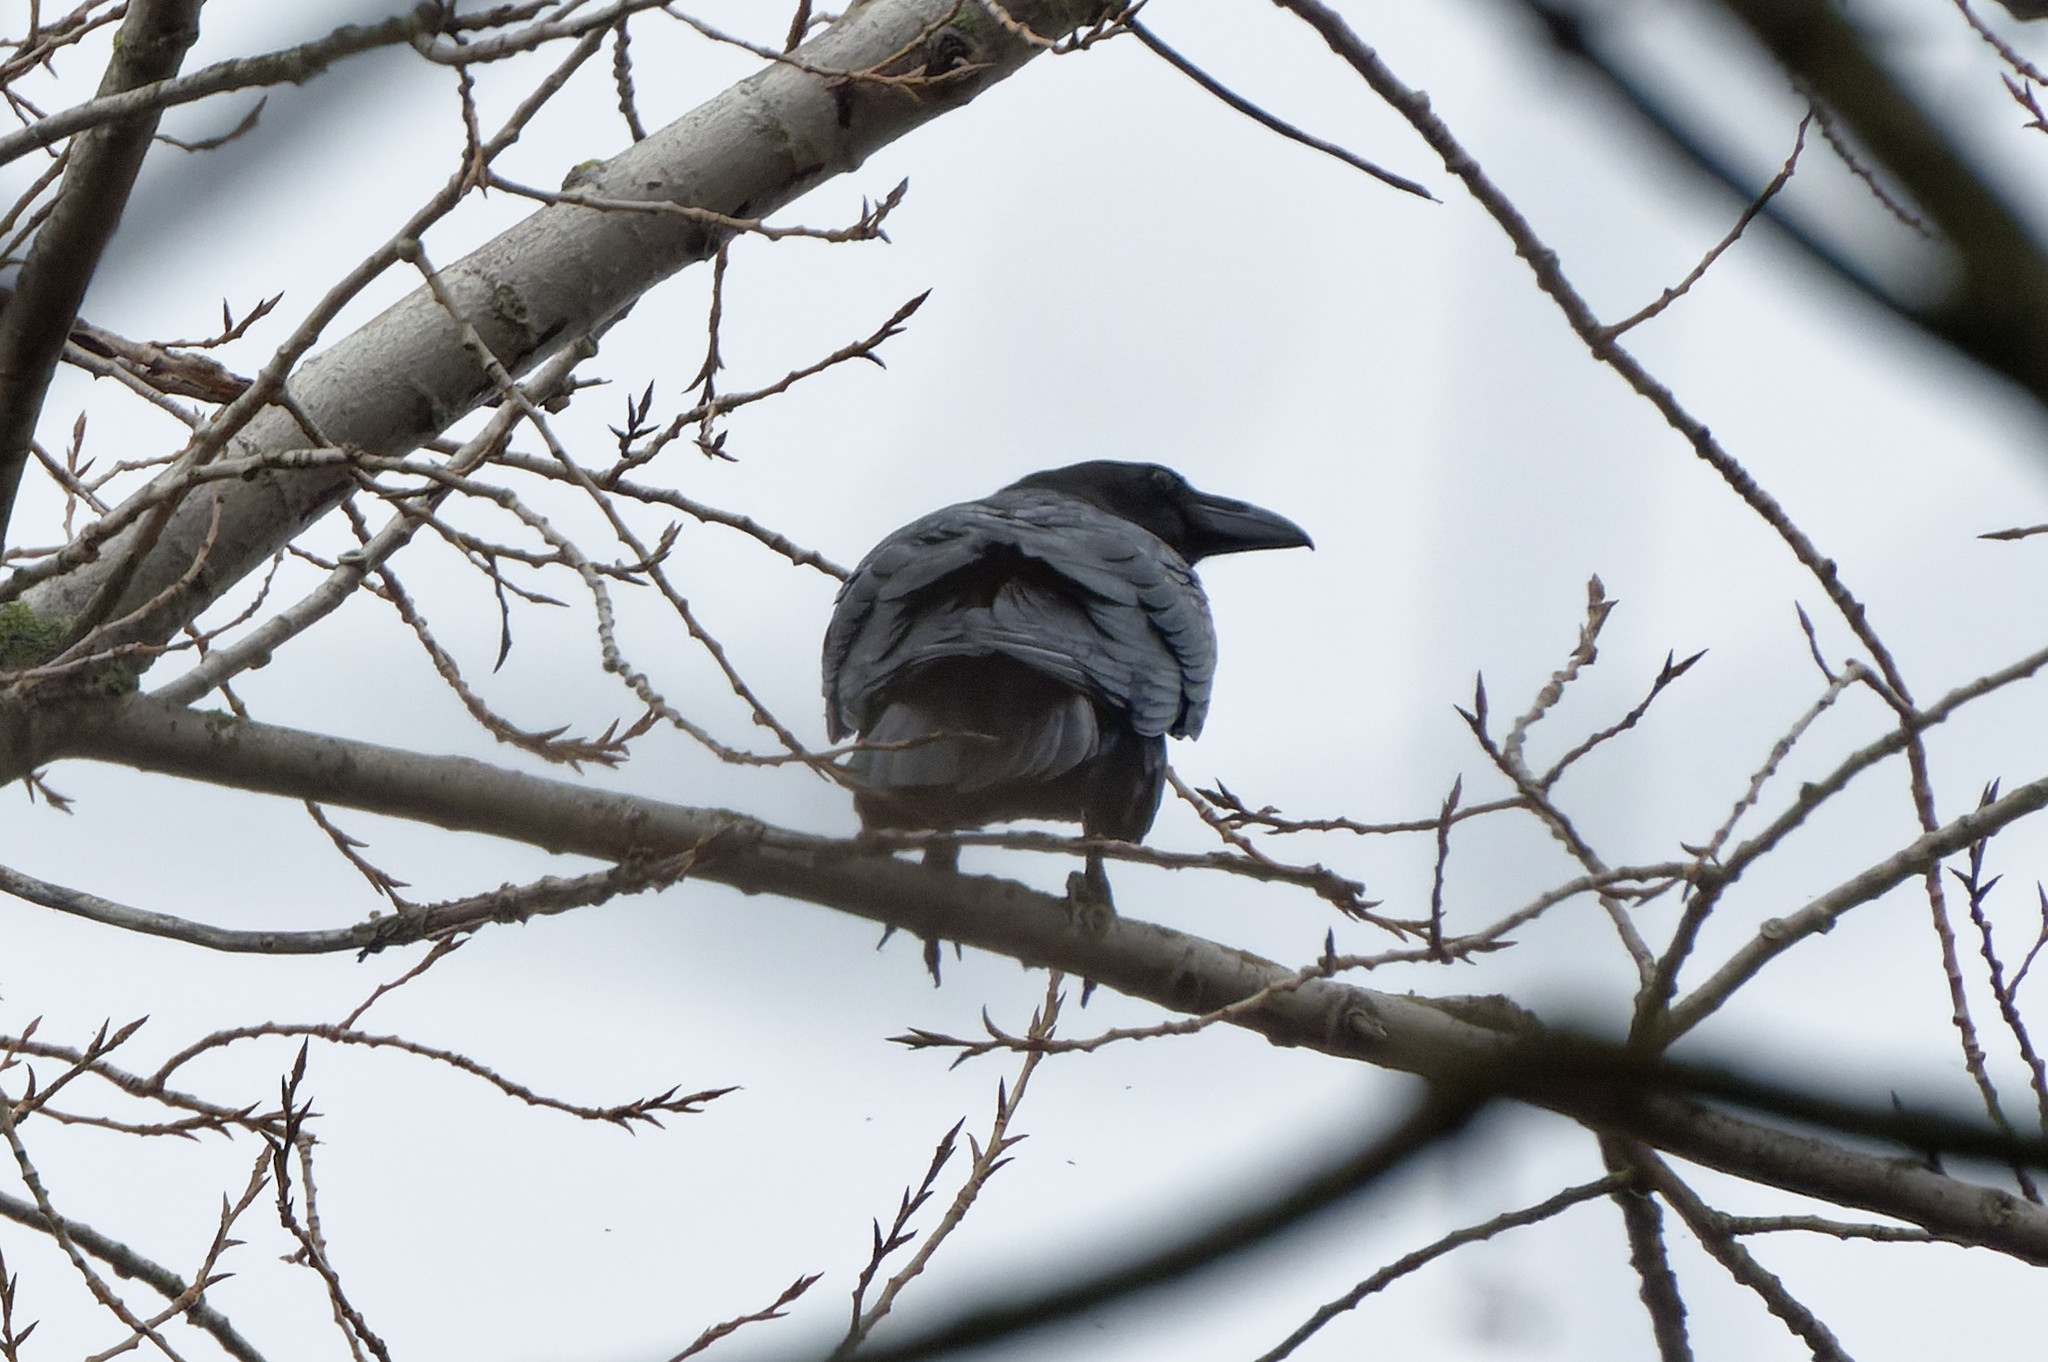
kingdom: Animalia
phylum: Chordata
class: Aves
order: Passeriformes
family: Corvidae
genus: Corvus
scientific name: Corvus corone
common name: Carrion crow
